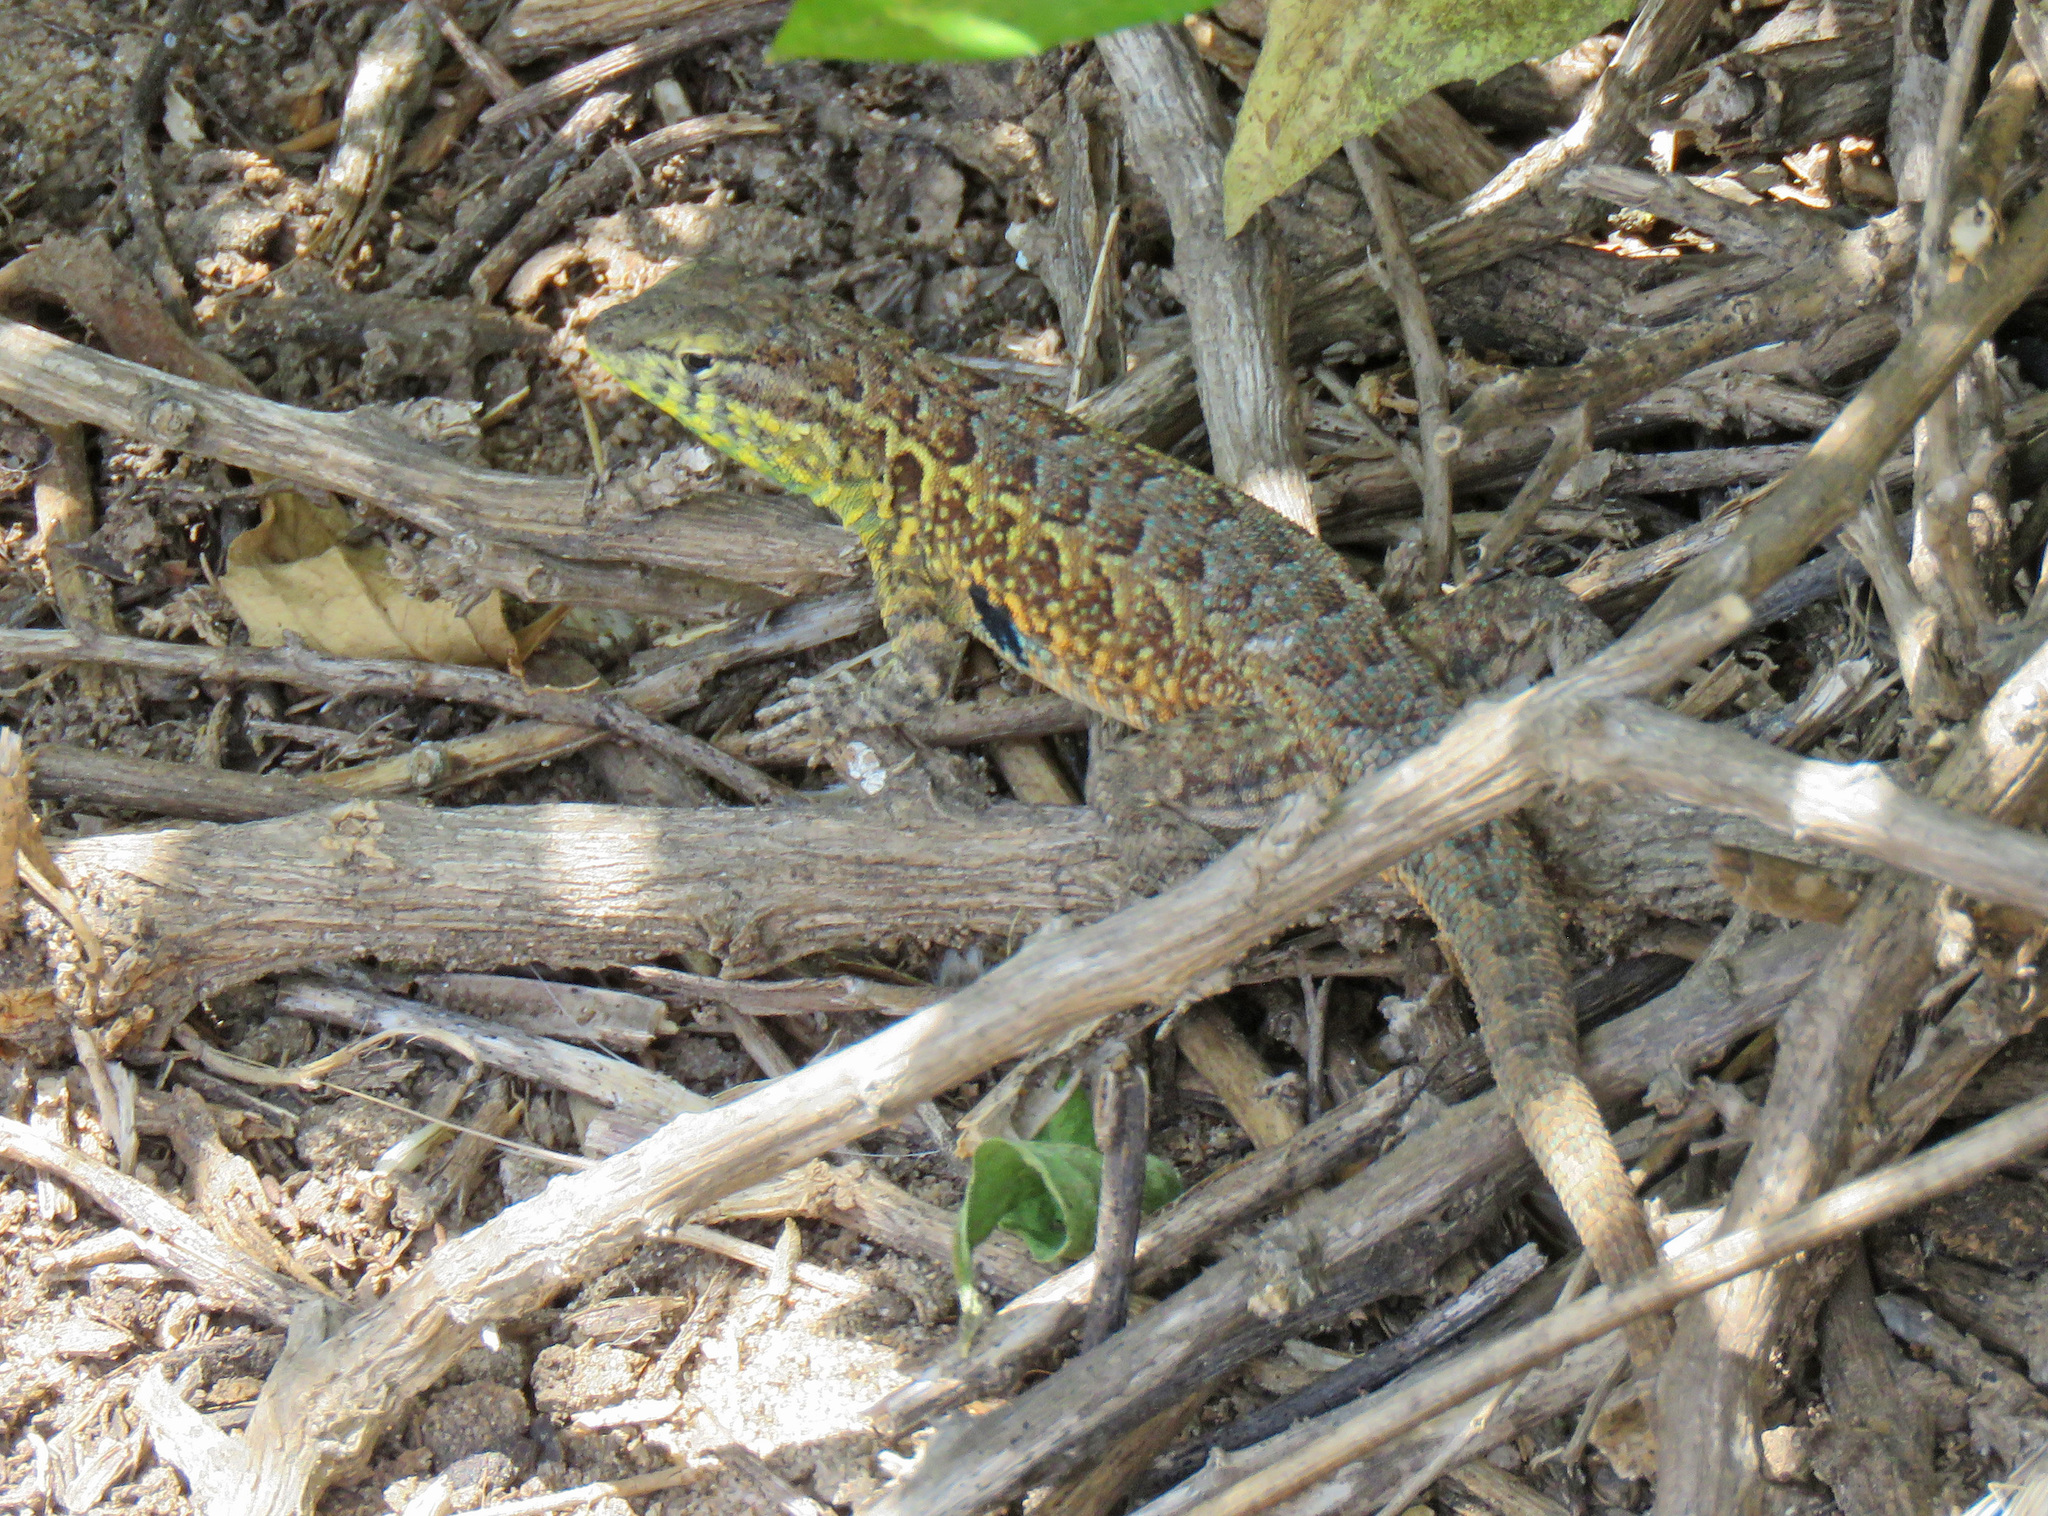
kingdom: Animalia
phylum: Chordata
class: Squamata
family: Phrynosomatidae
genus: Uta
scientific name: Uta stansburiana
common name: Side-blotched lizard
